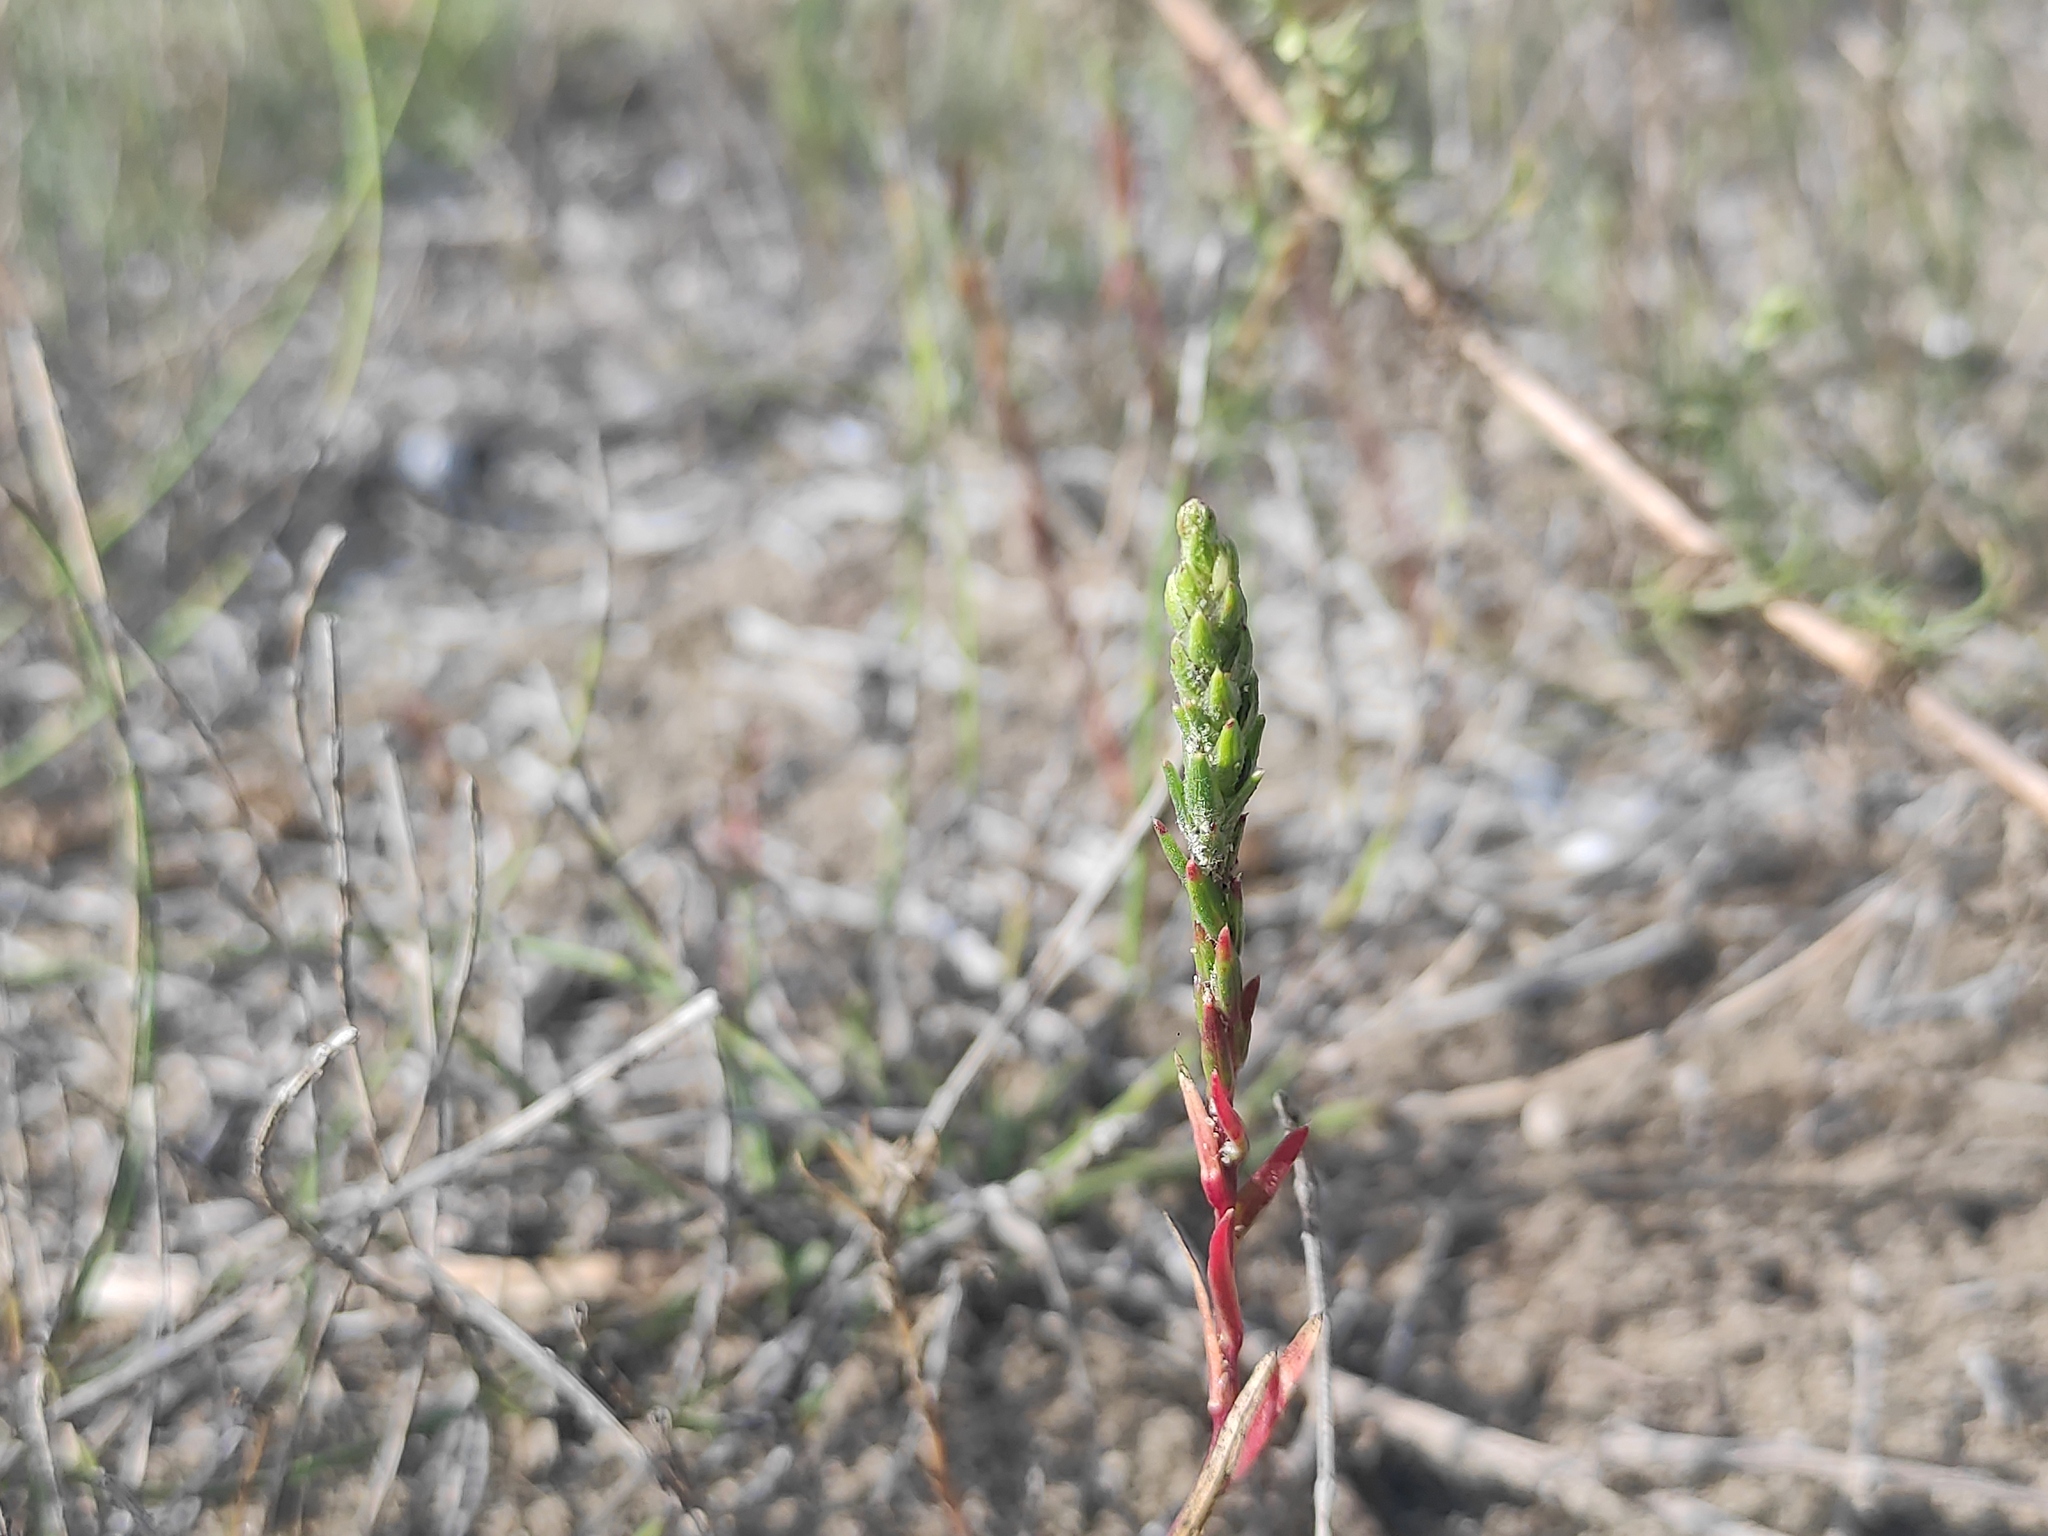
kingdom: Plantae
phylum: Tracheophyta
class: Magnoliopsida
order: Caryophyllales
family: Amaranthaceae
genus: Corispermum
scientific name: Corispermum gallicum
